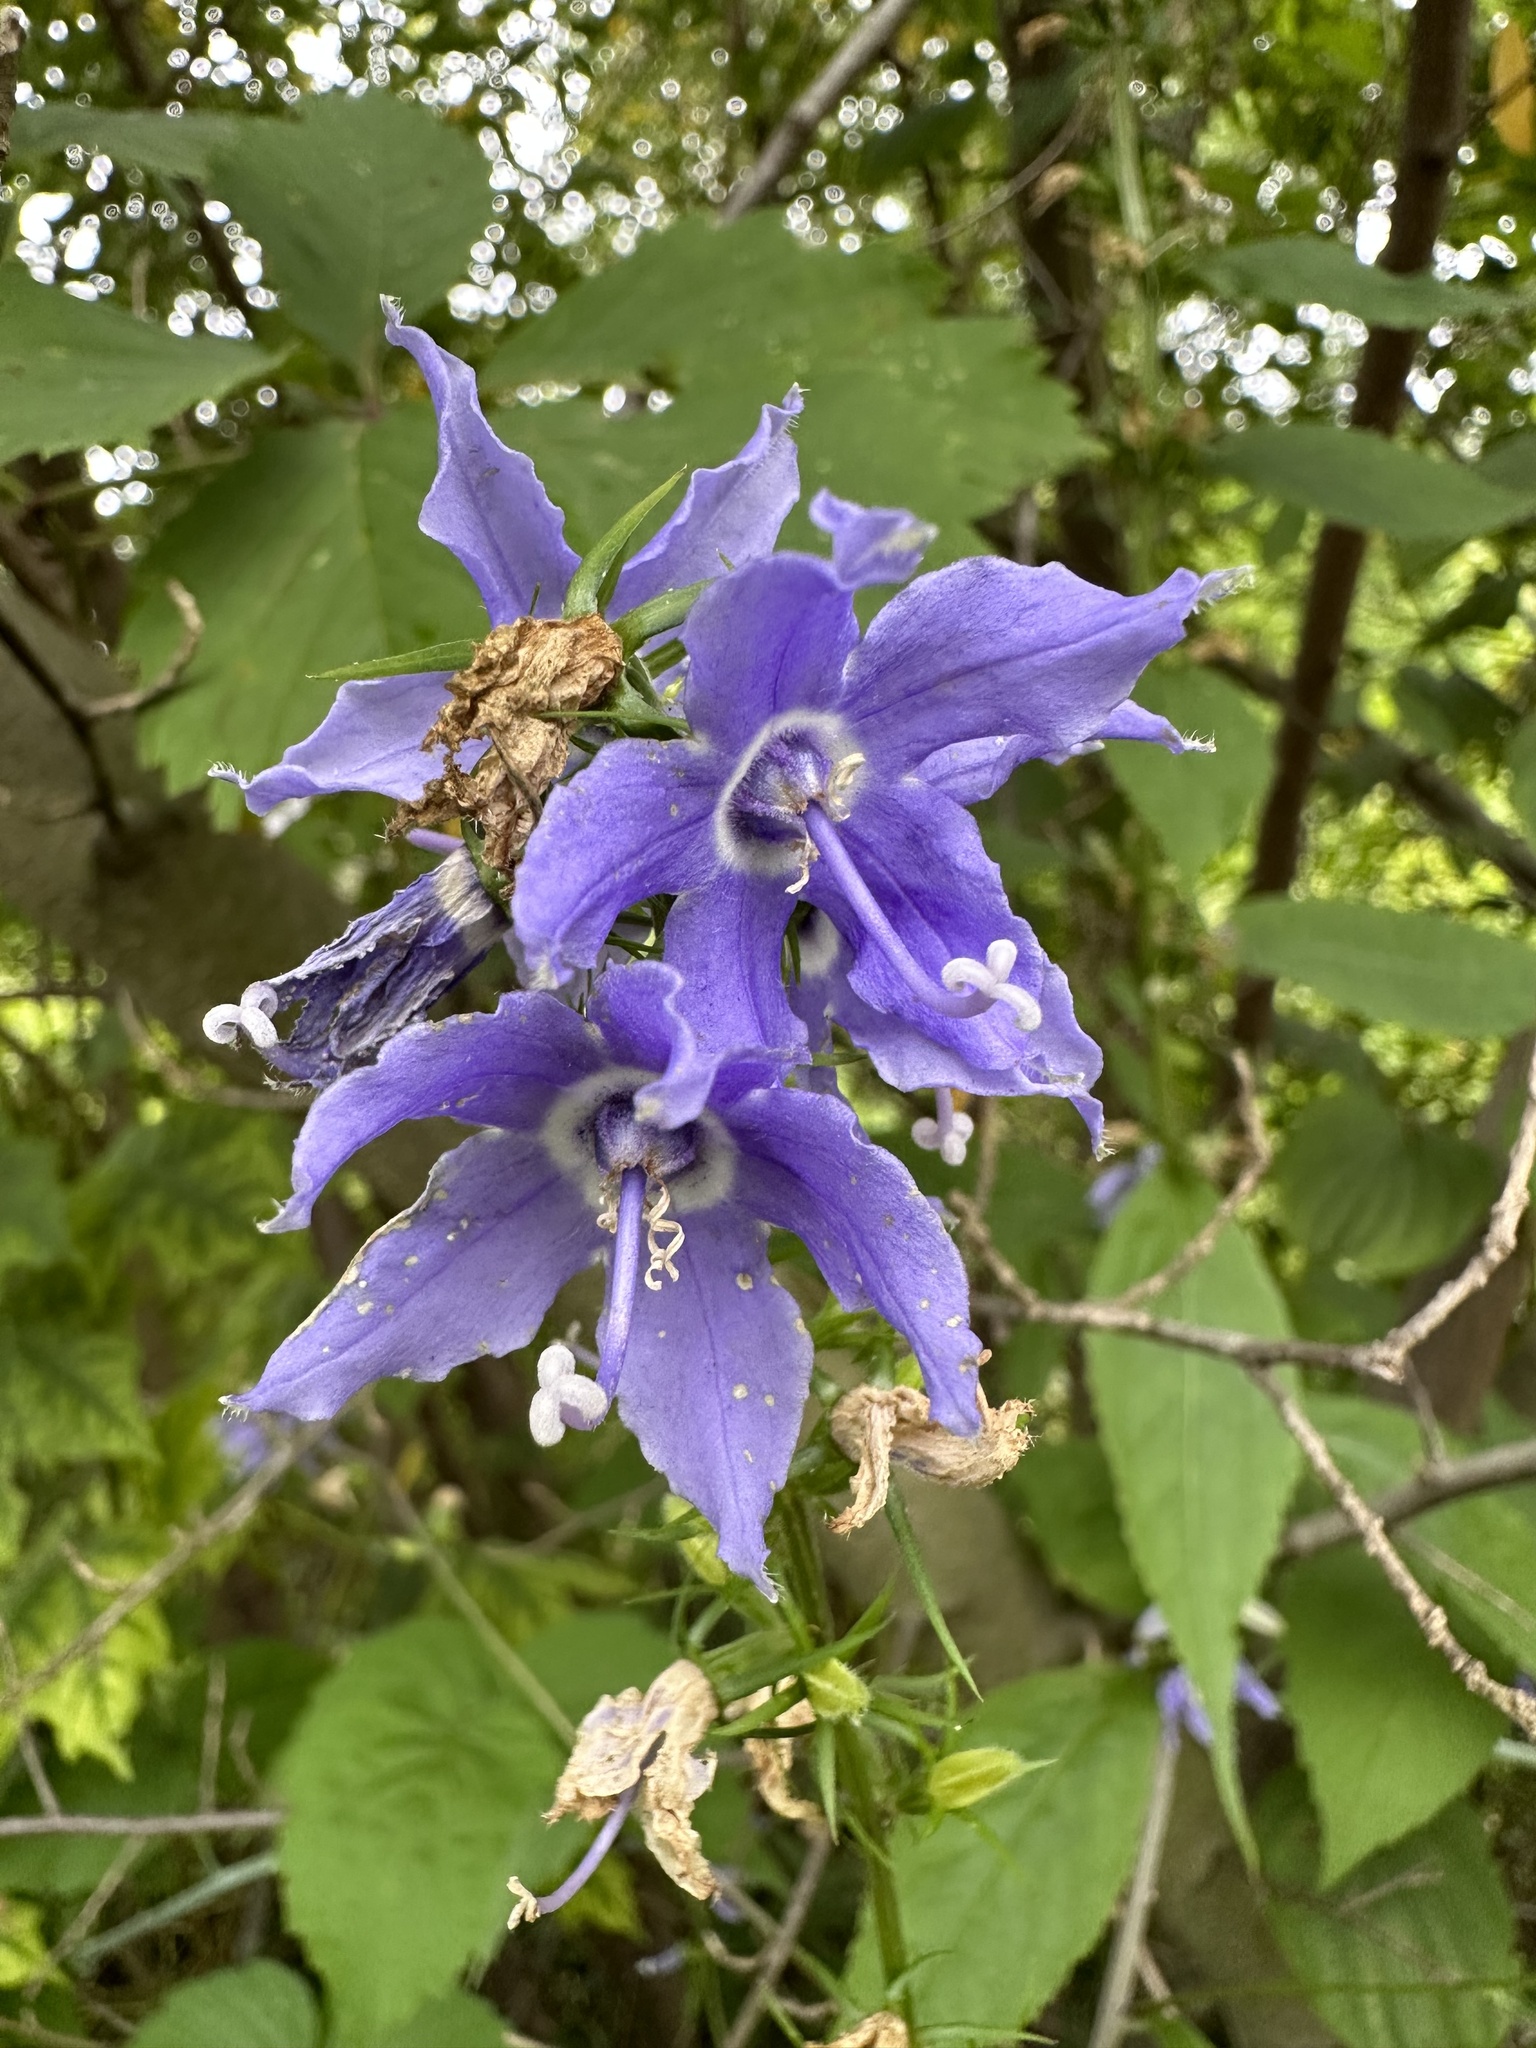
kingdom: Plantae
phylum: Tracheophyta
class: Magnoliopsida
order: Asterales
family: Campanulaceae
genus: Campanulastrum
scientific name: Campanulastrum americanum
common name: American bellflower
